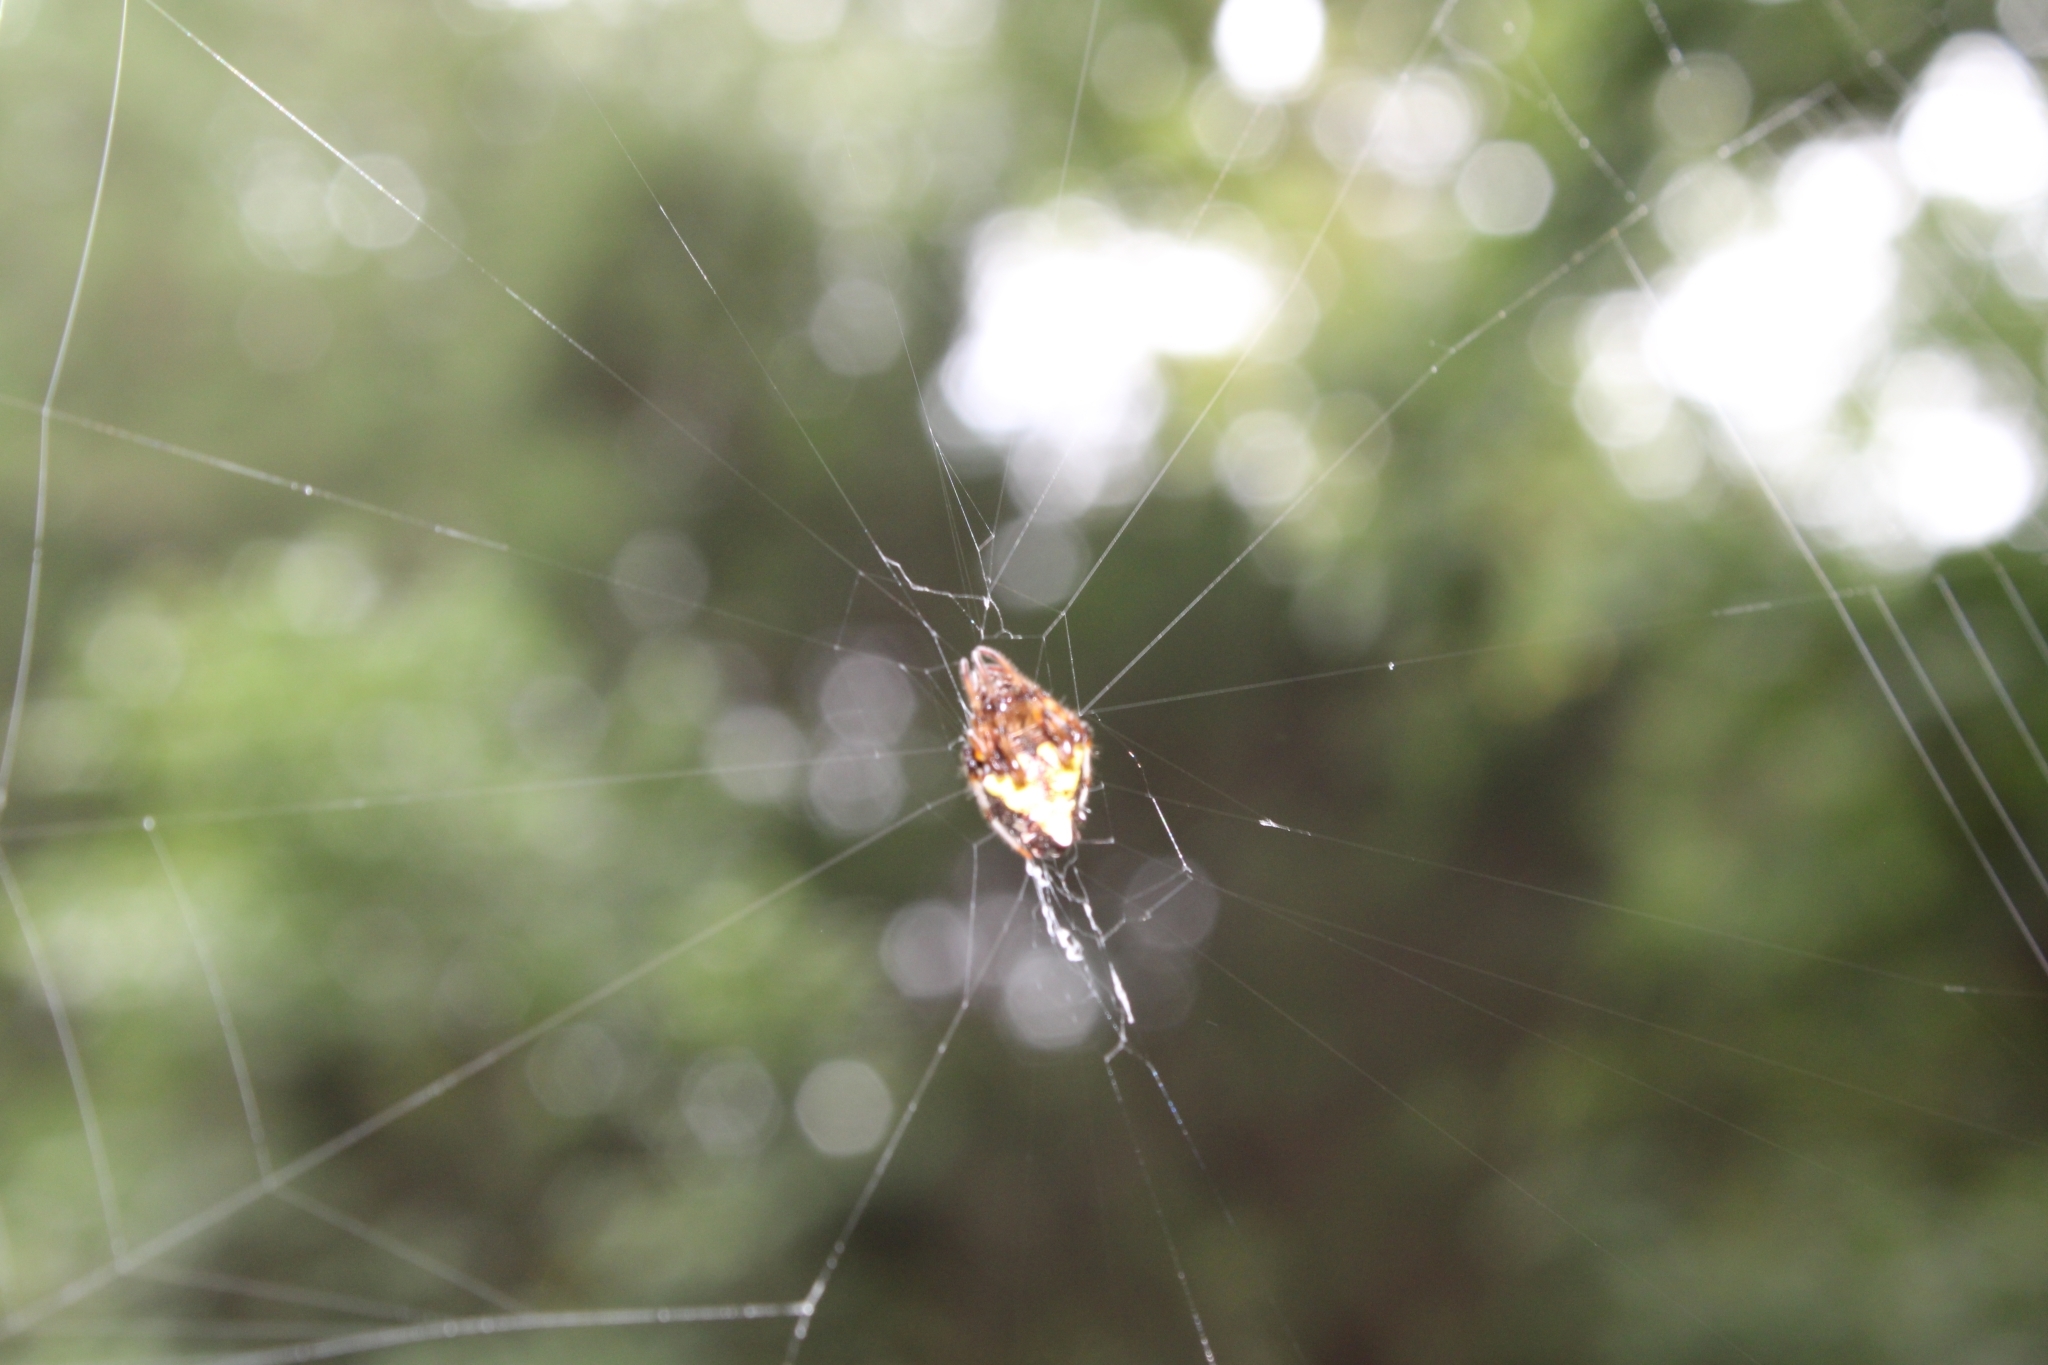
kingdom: Animalia
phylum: Arthropoda
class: Arachnida
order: Araneae
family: Araneidae
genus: Verrucosa
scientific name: Verrucosa arenata
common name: Orb weavers
